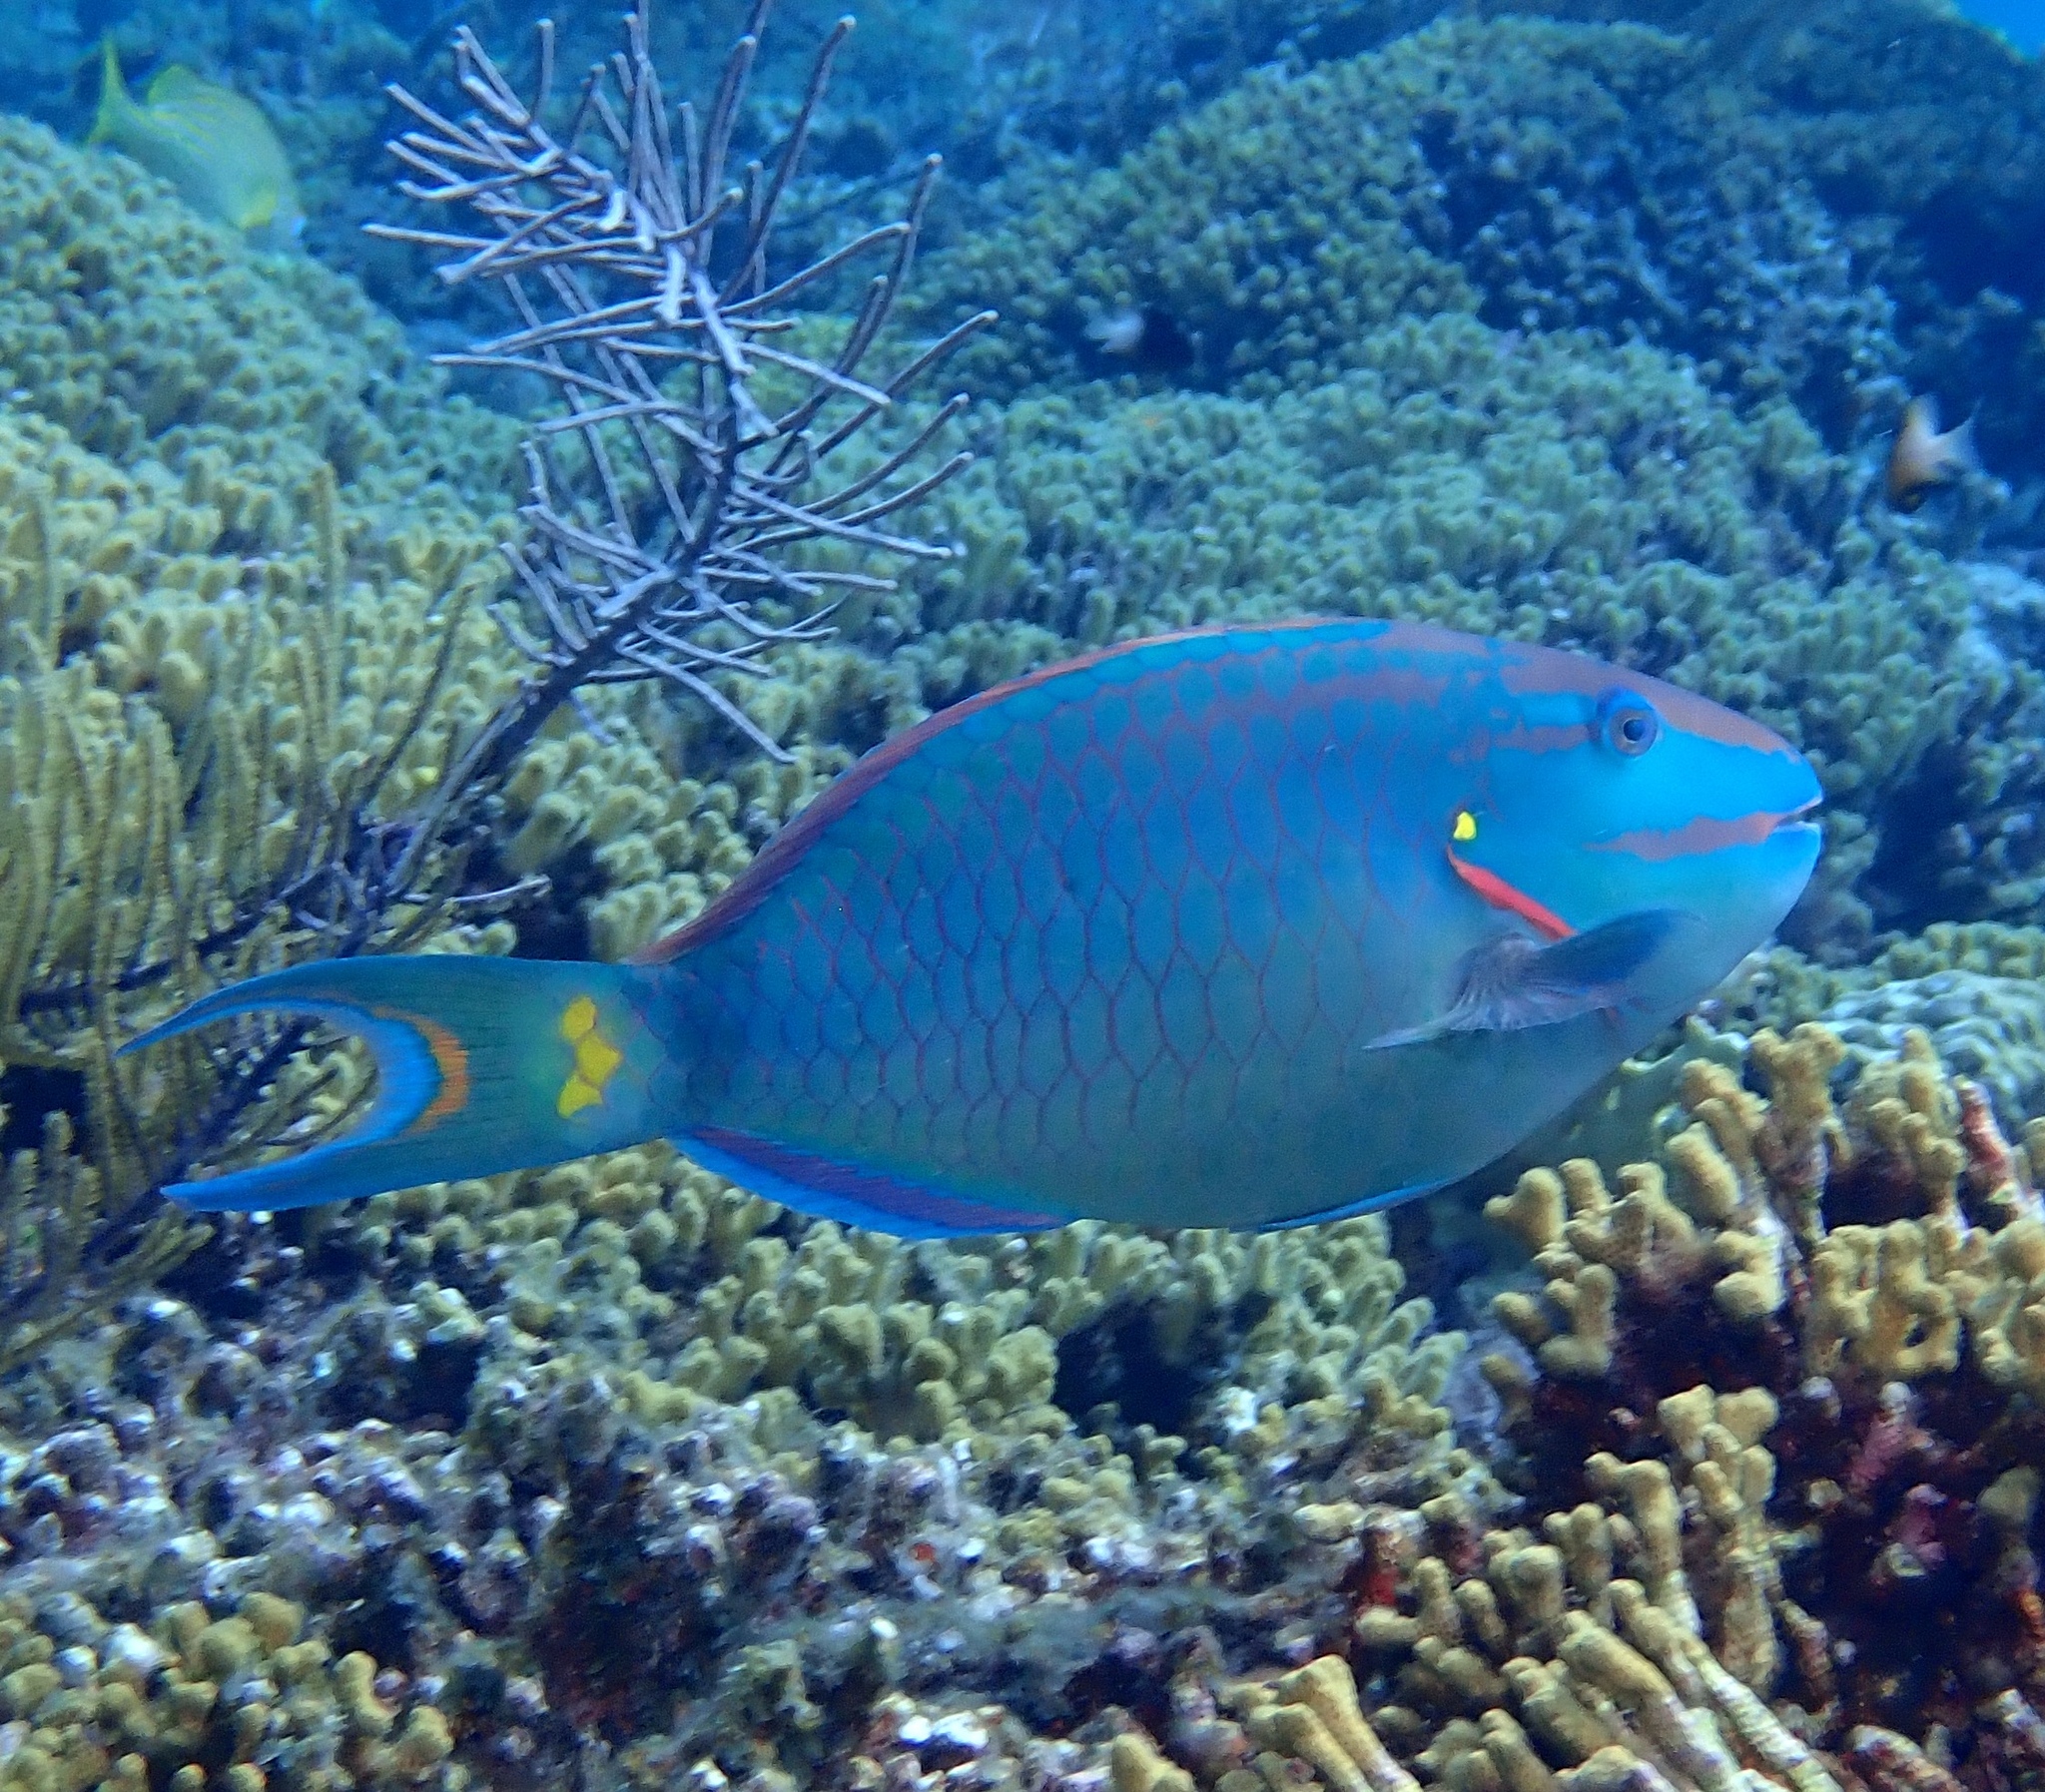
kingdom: Animalia
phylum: Chordata
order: Perciformes
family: Scaridae
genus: Sparisoma
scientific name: Sparisoma viride
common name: Stoplight parrotfish
